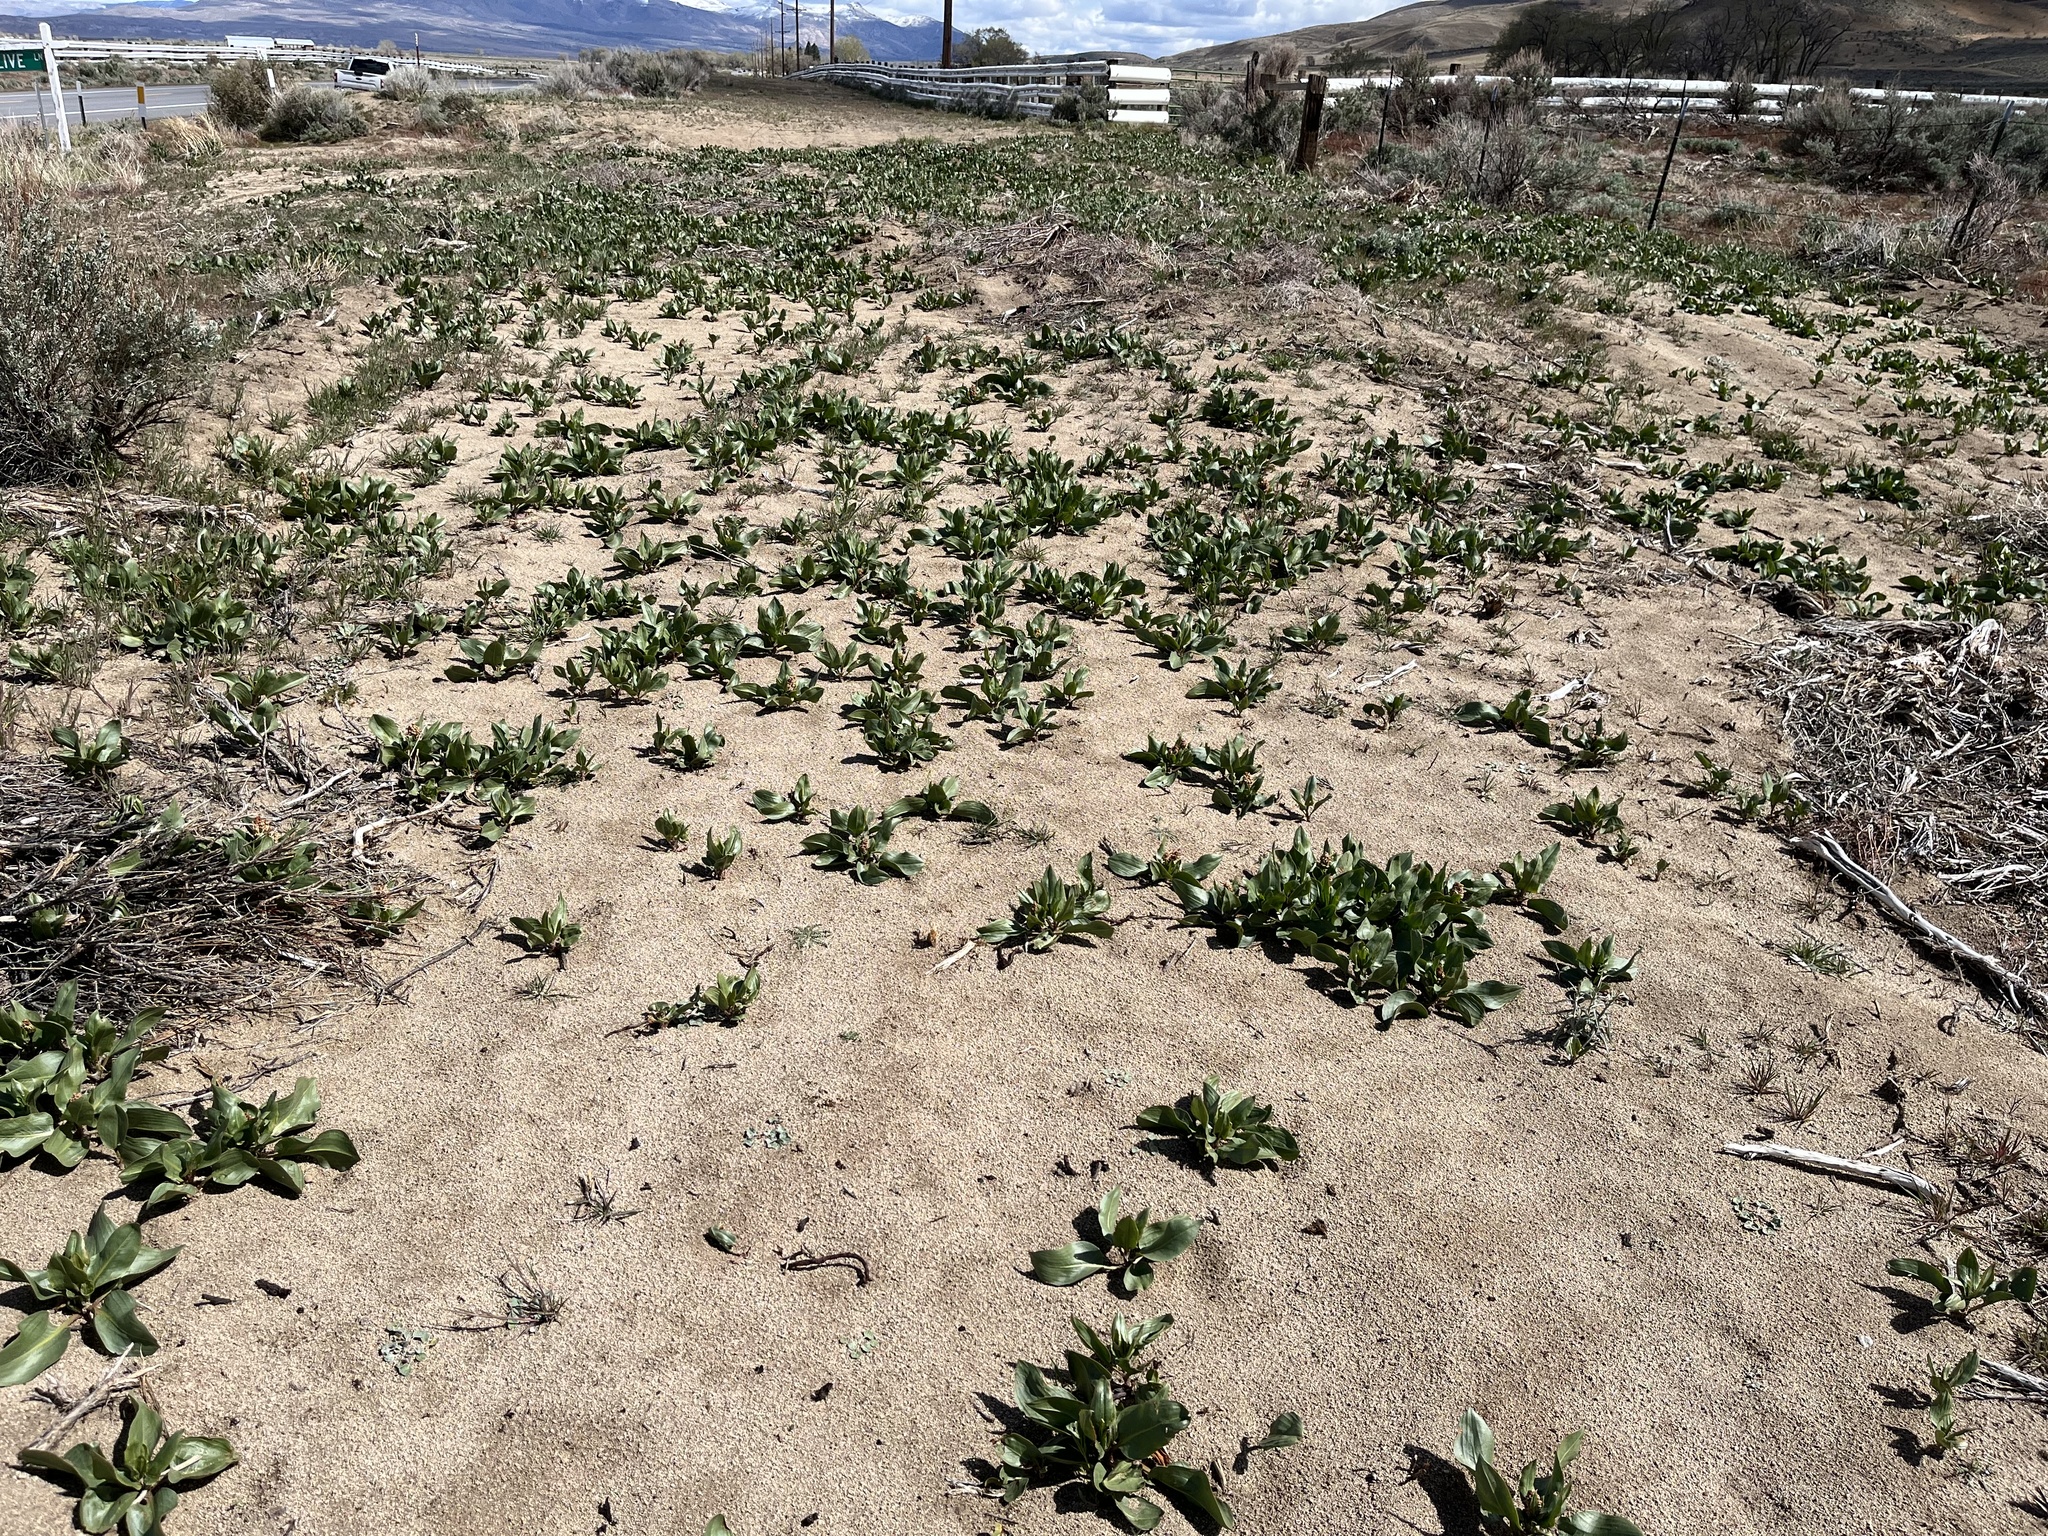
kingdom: Plantae
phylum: Tracheophyta
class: Magnoliopsida
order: Caryophyllales
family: Polygonaceae
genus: Rumex
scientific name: Rumex venosus
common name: Winged dock
